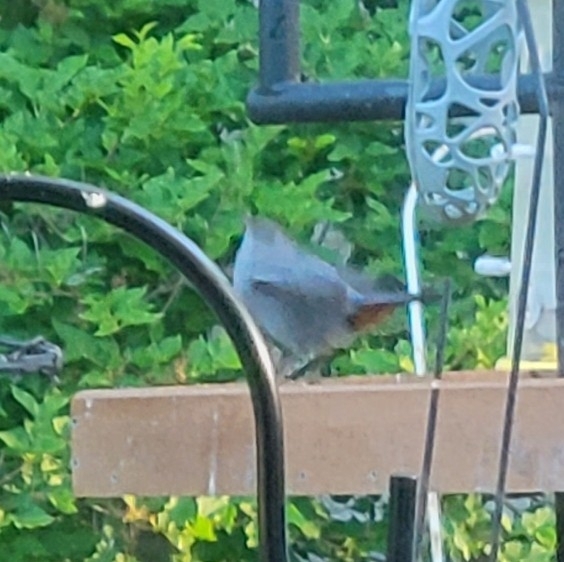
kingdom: Animalia
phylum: Chordata
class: Aves
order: Passeriformes
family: Mimidae
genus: Dumetella
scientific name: Dumetella carolinensis
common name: Gray catbird
